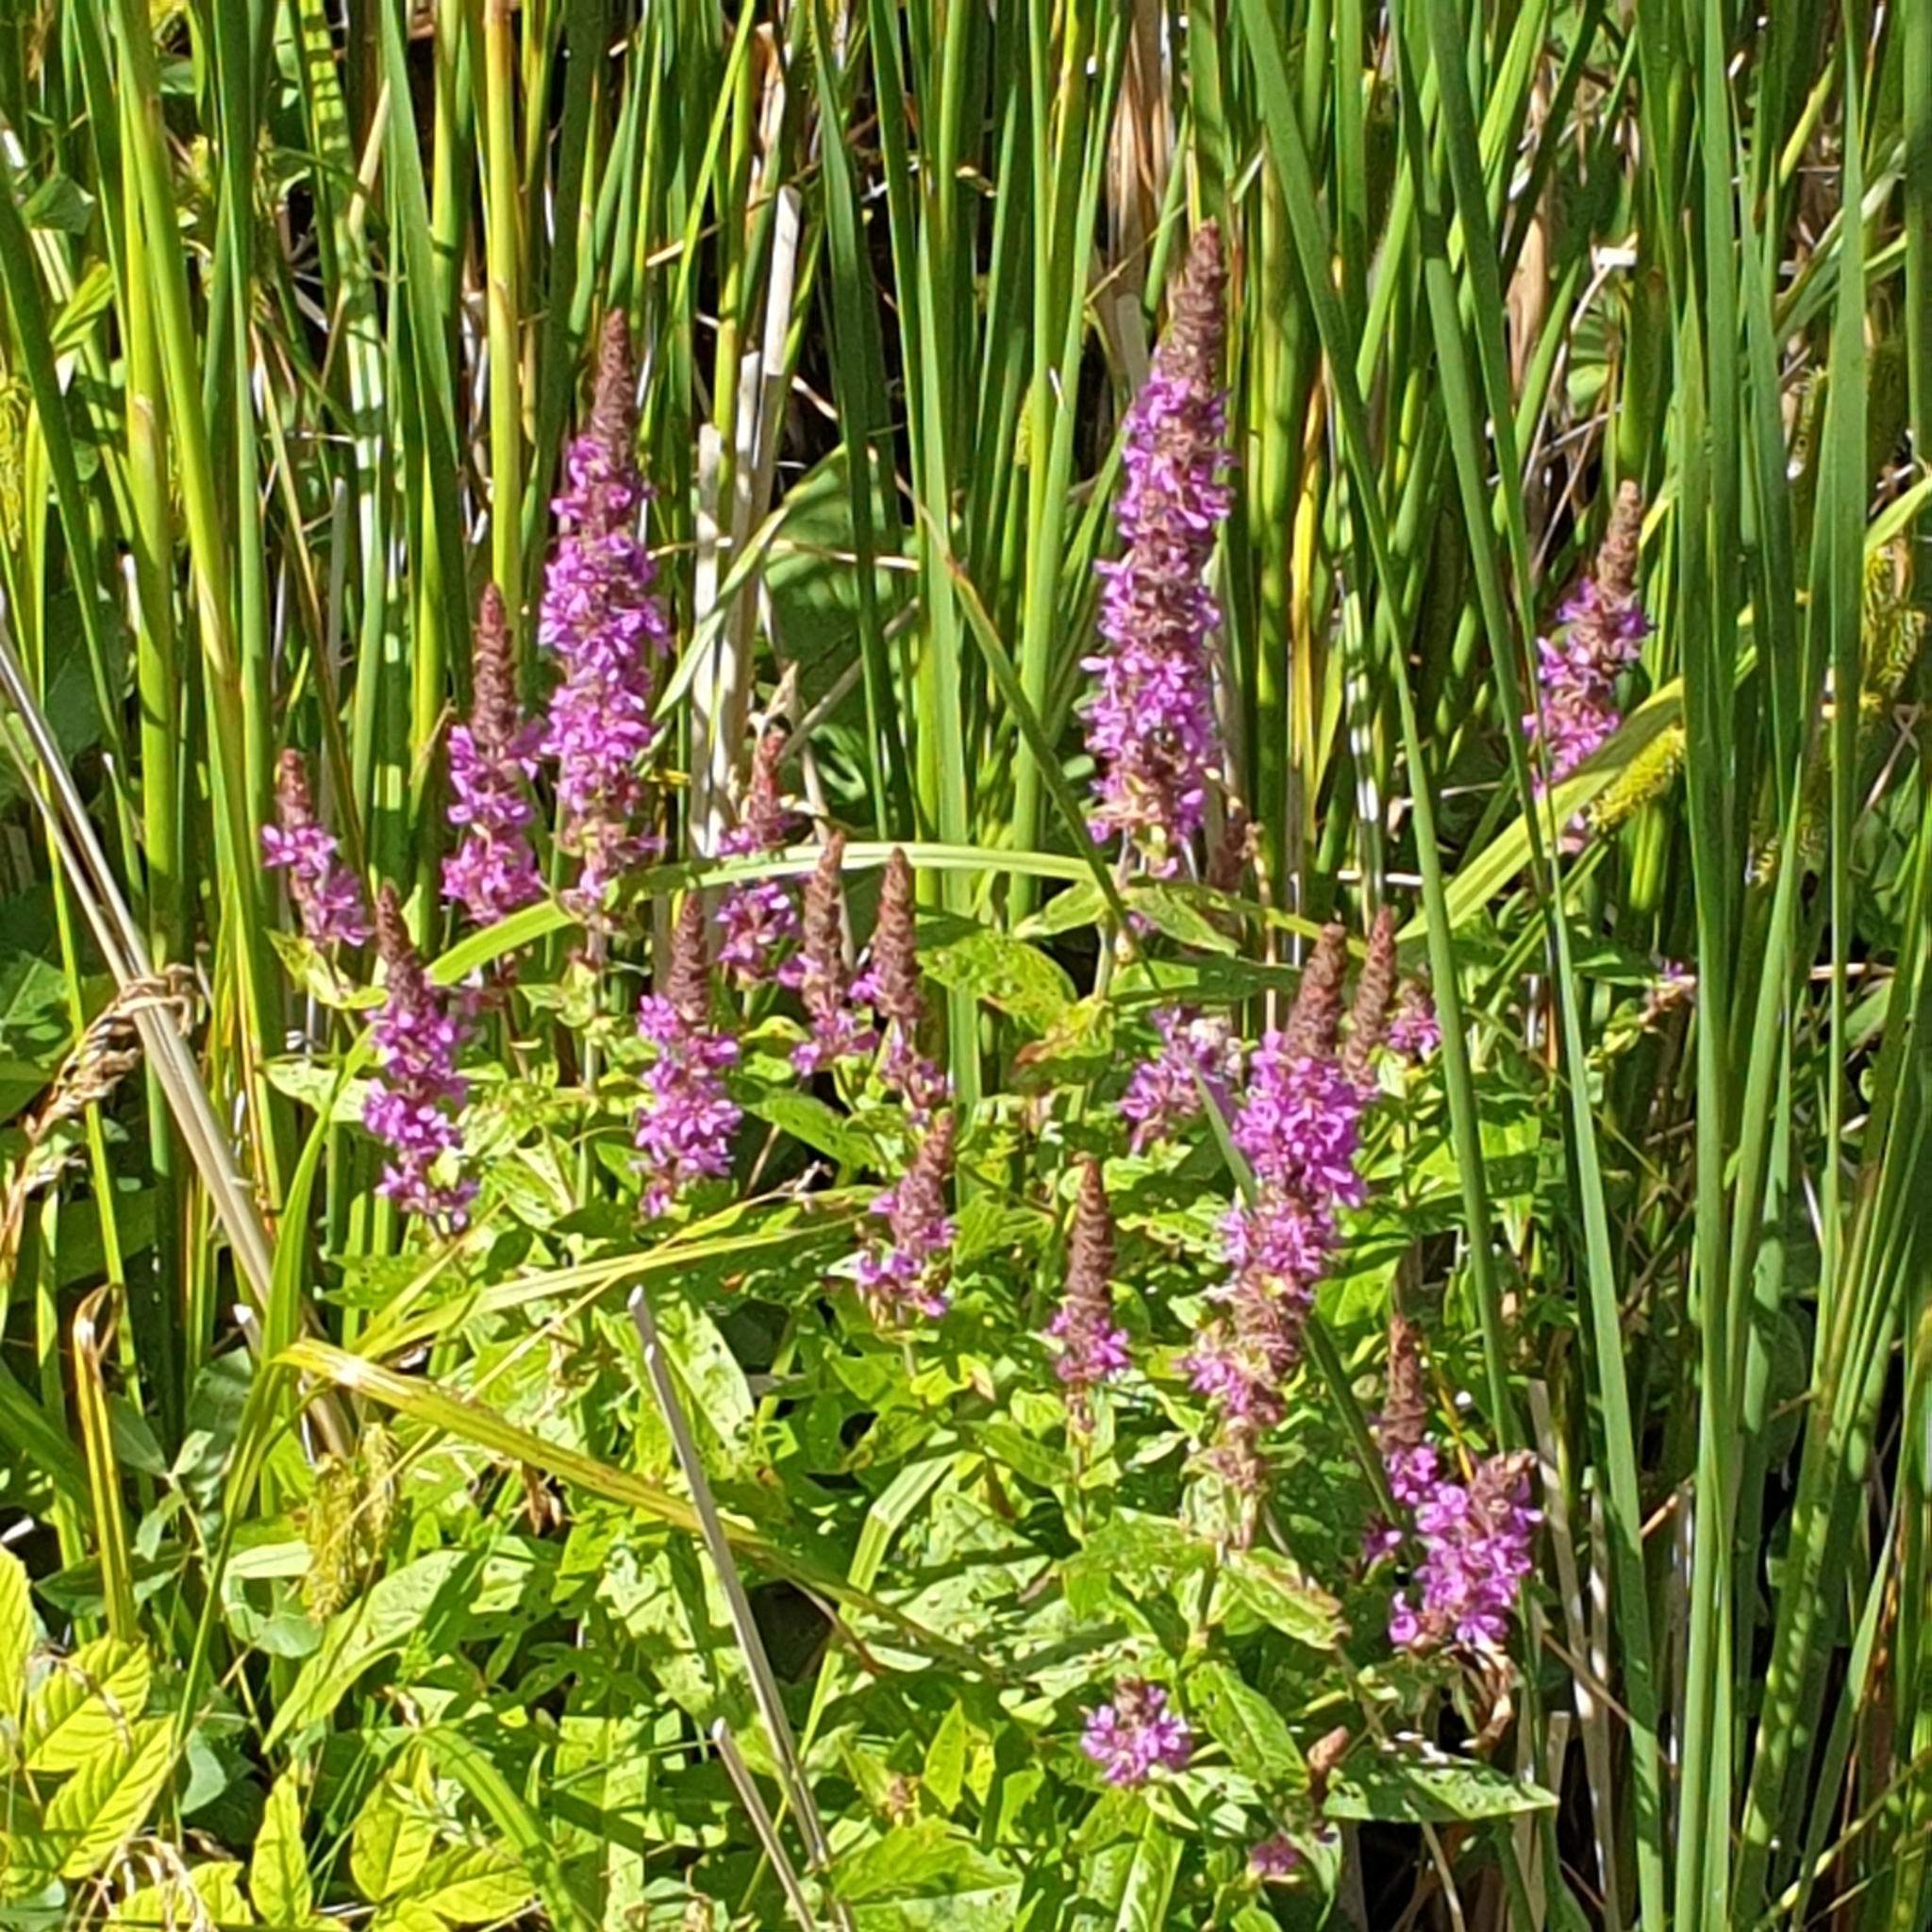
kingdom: Plantae
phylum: Tracheophyta
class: Magnoliopsida
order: Myrtales
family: Lythraceae
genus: Lythrum
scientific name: Lythrum salicaria
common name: Purple loosestrife
